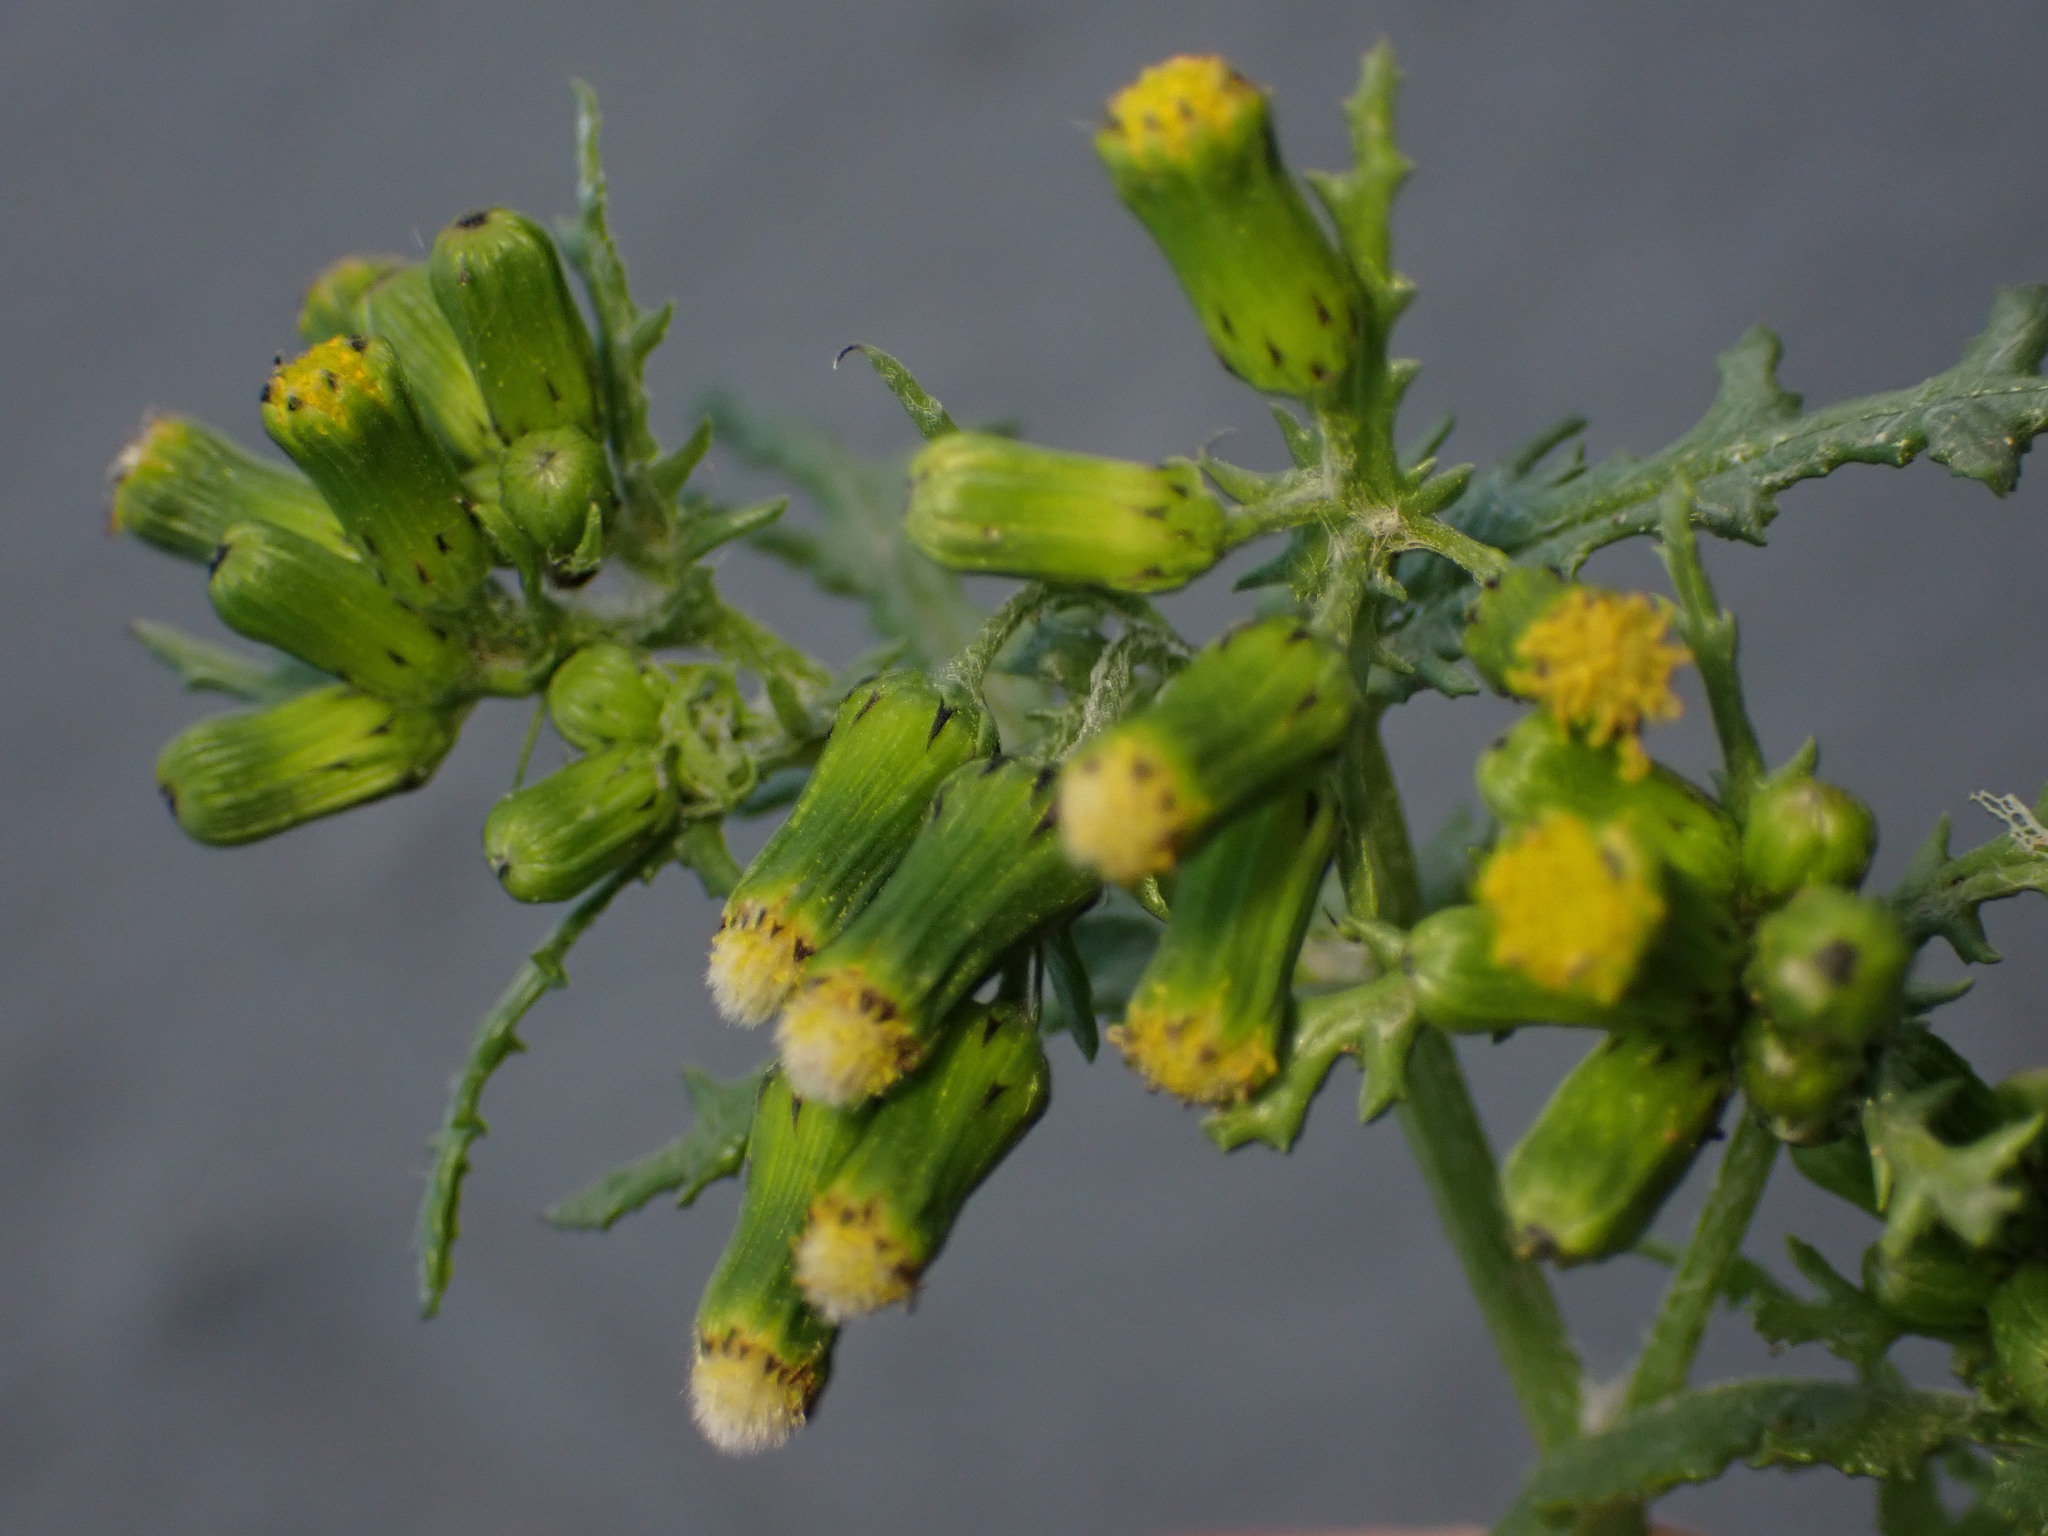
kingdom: Fungi
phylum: Basidiomycota
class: Pucciniomycetes
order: Pucciniales
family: Pucciniaceae
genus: Puccinia
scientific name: Puccinia lagenophorae
